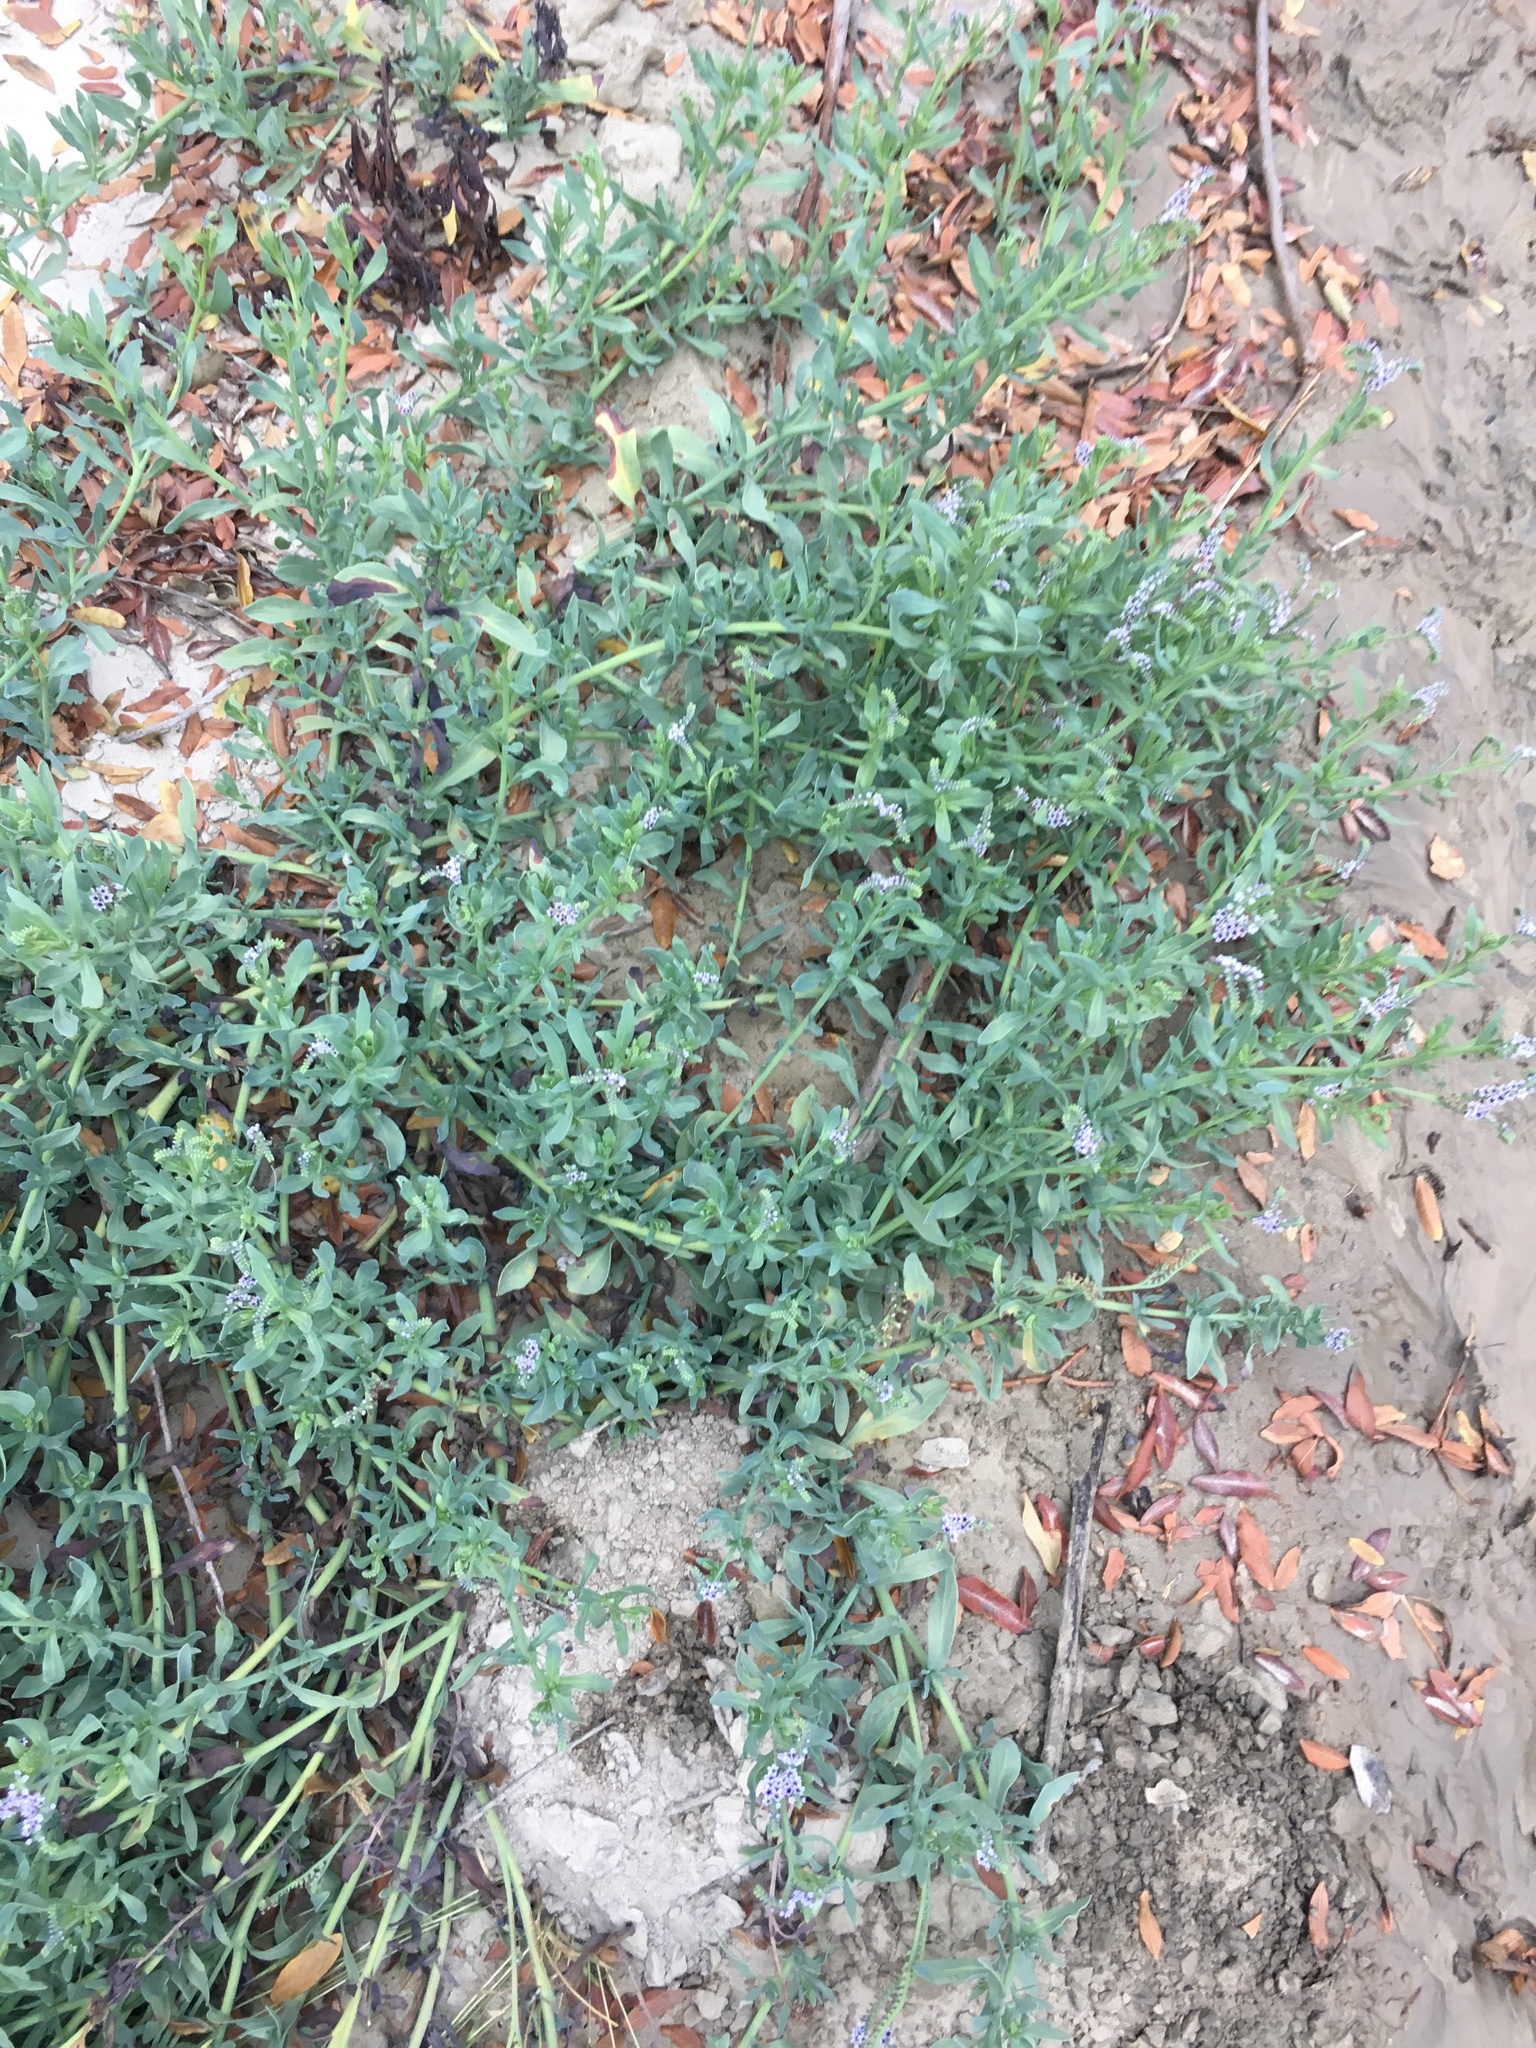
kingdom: Plantae
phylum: Tracheophyta
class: Magnoliopsida
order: Boraginales
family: Heliotropiaceae
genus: Heliotropium
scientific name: Heliotropium curassavicum
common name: Seaside heliotrope
